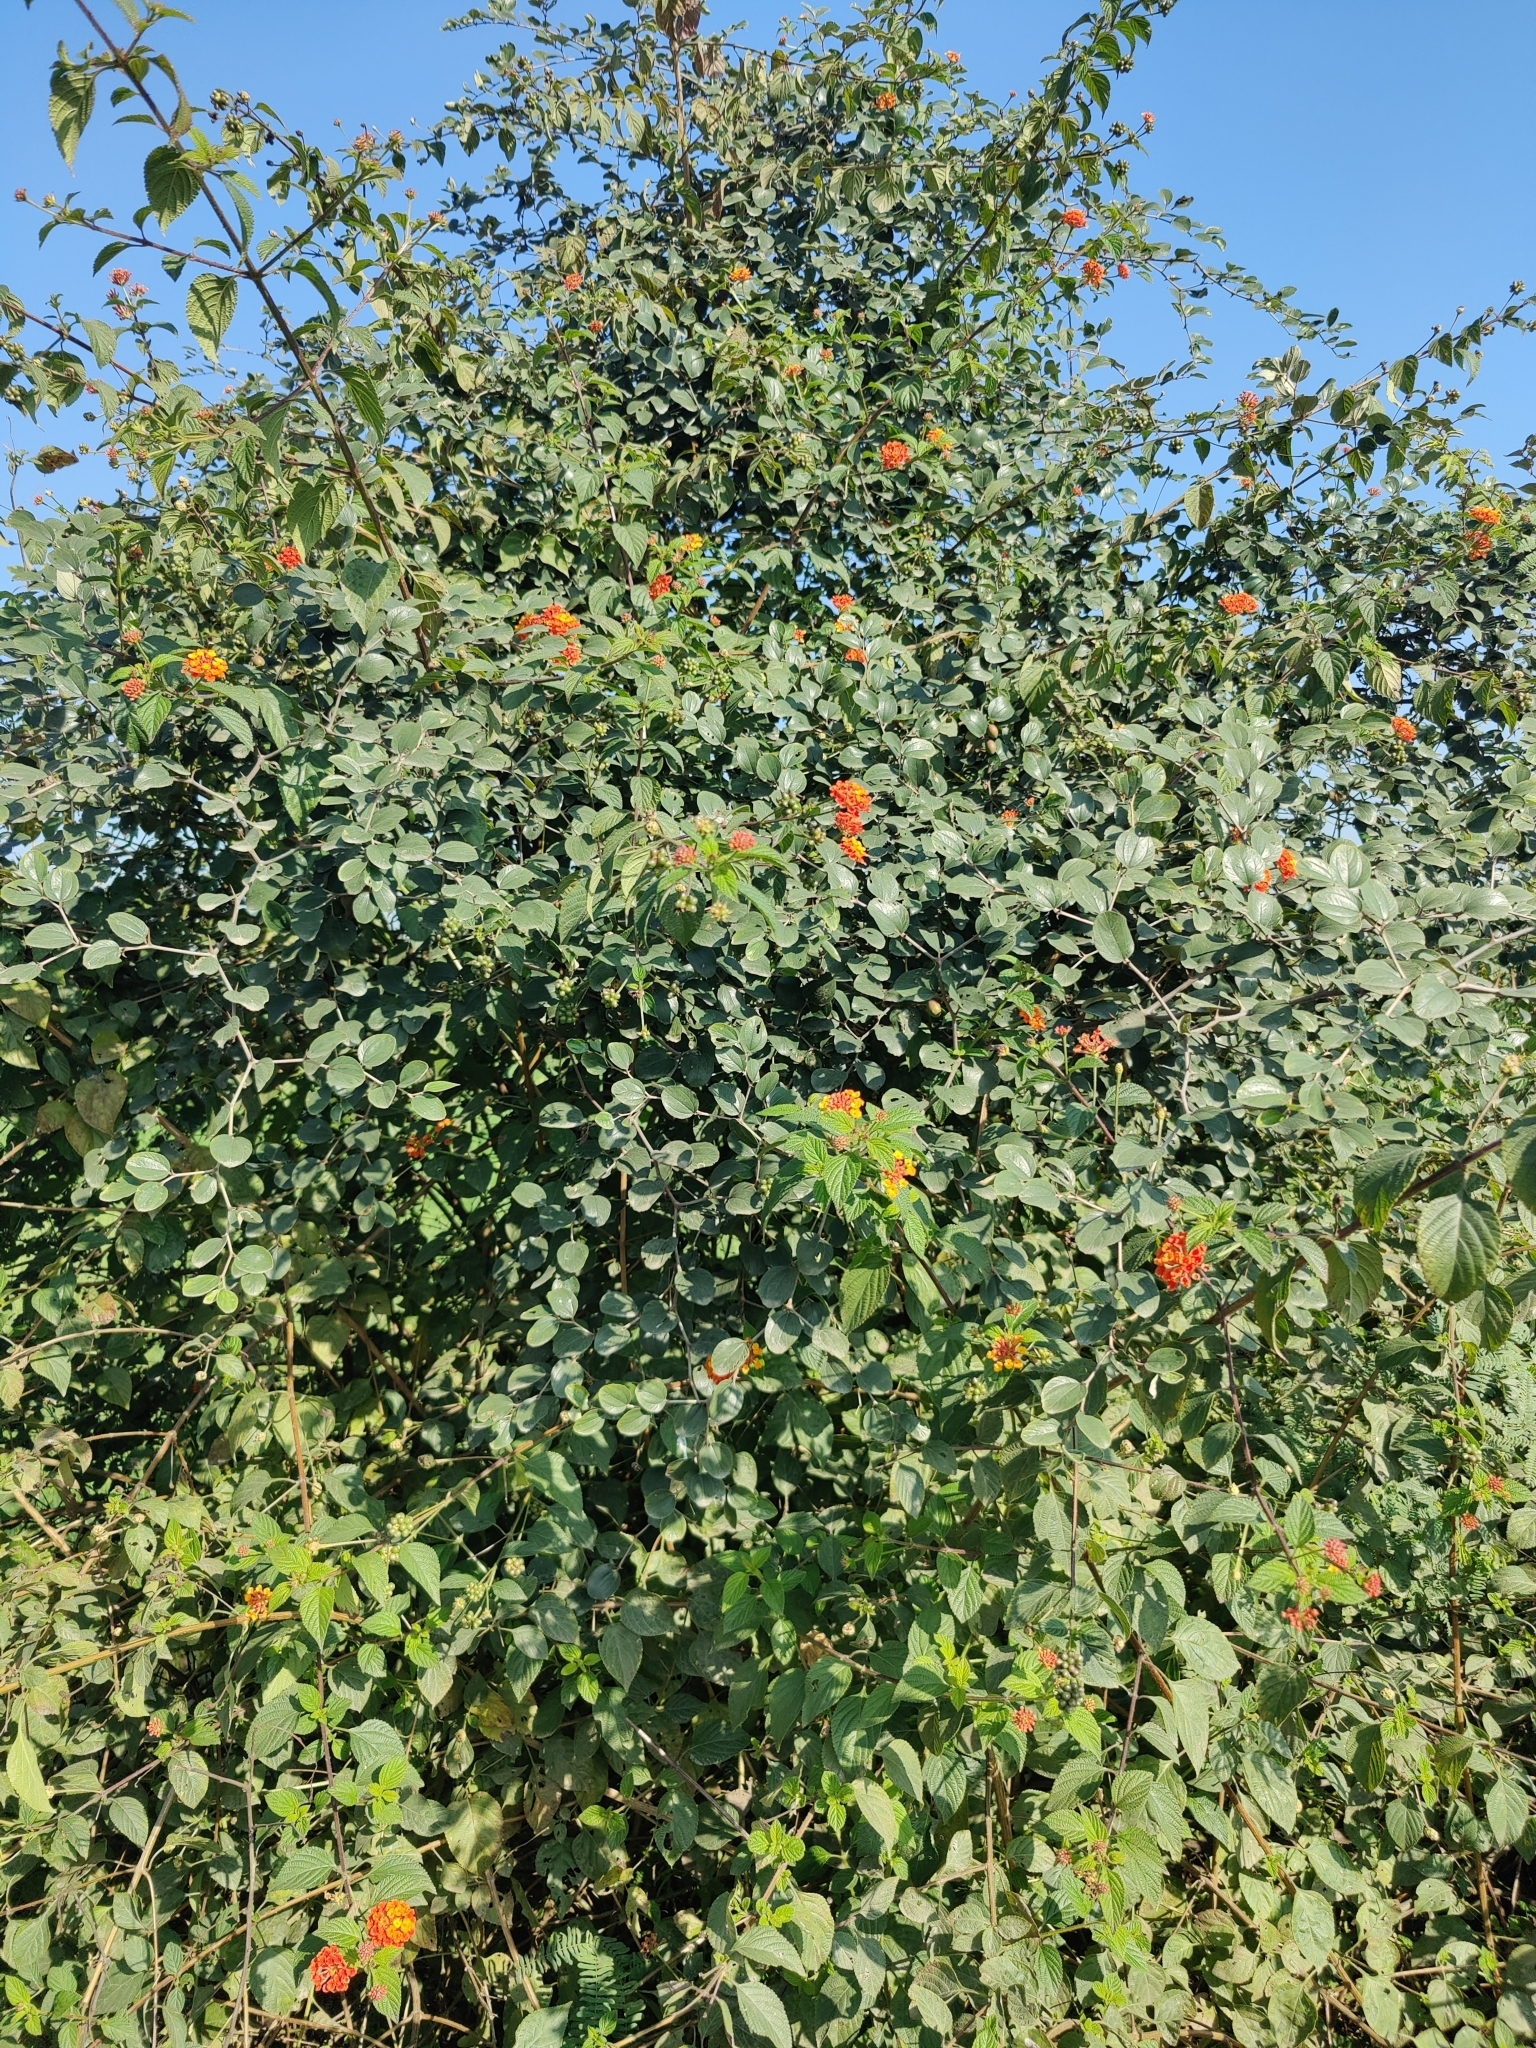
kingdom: Plantae
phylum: Tracheophyta
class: Magnoliopsida
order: Lamiales
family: Verbenaceae
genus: Lantana
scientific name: Lantana camara
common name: Lantana
